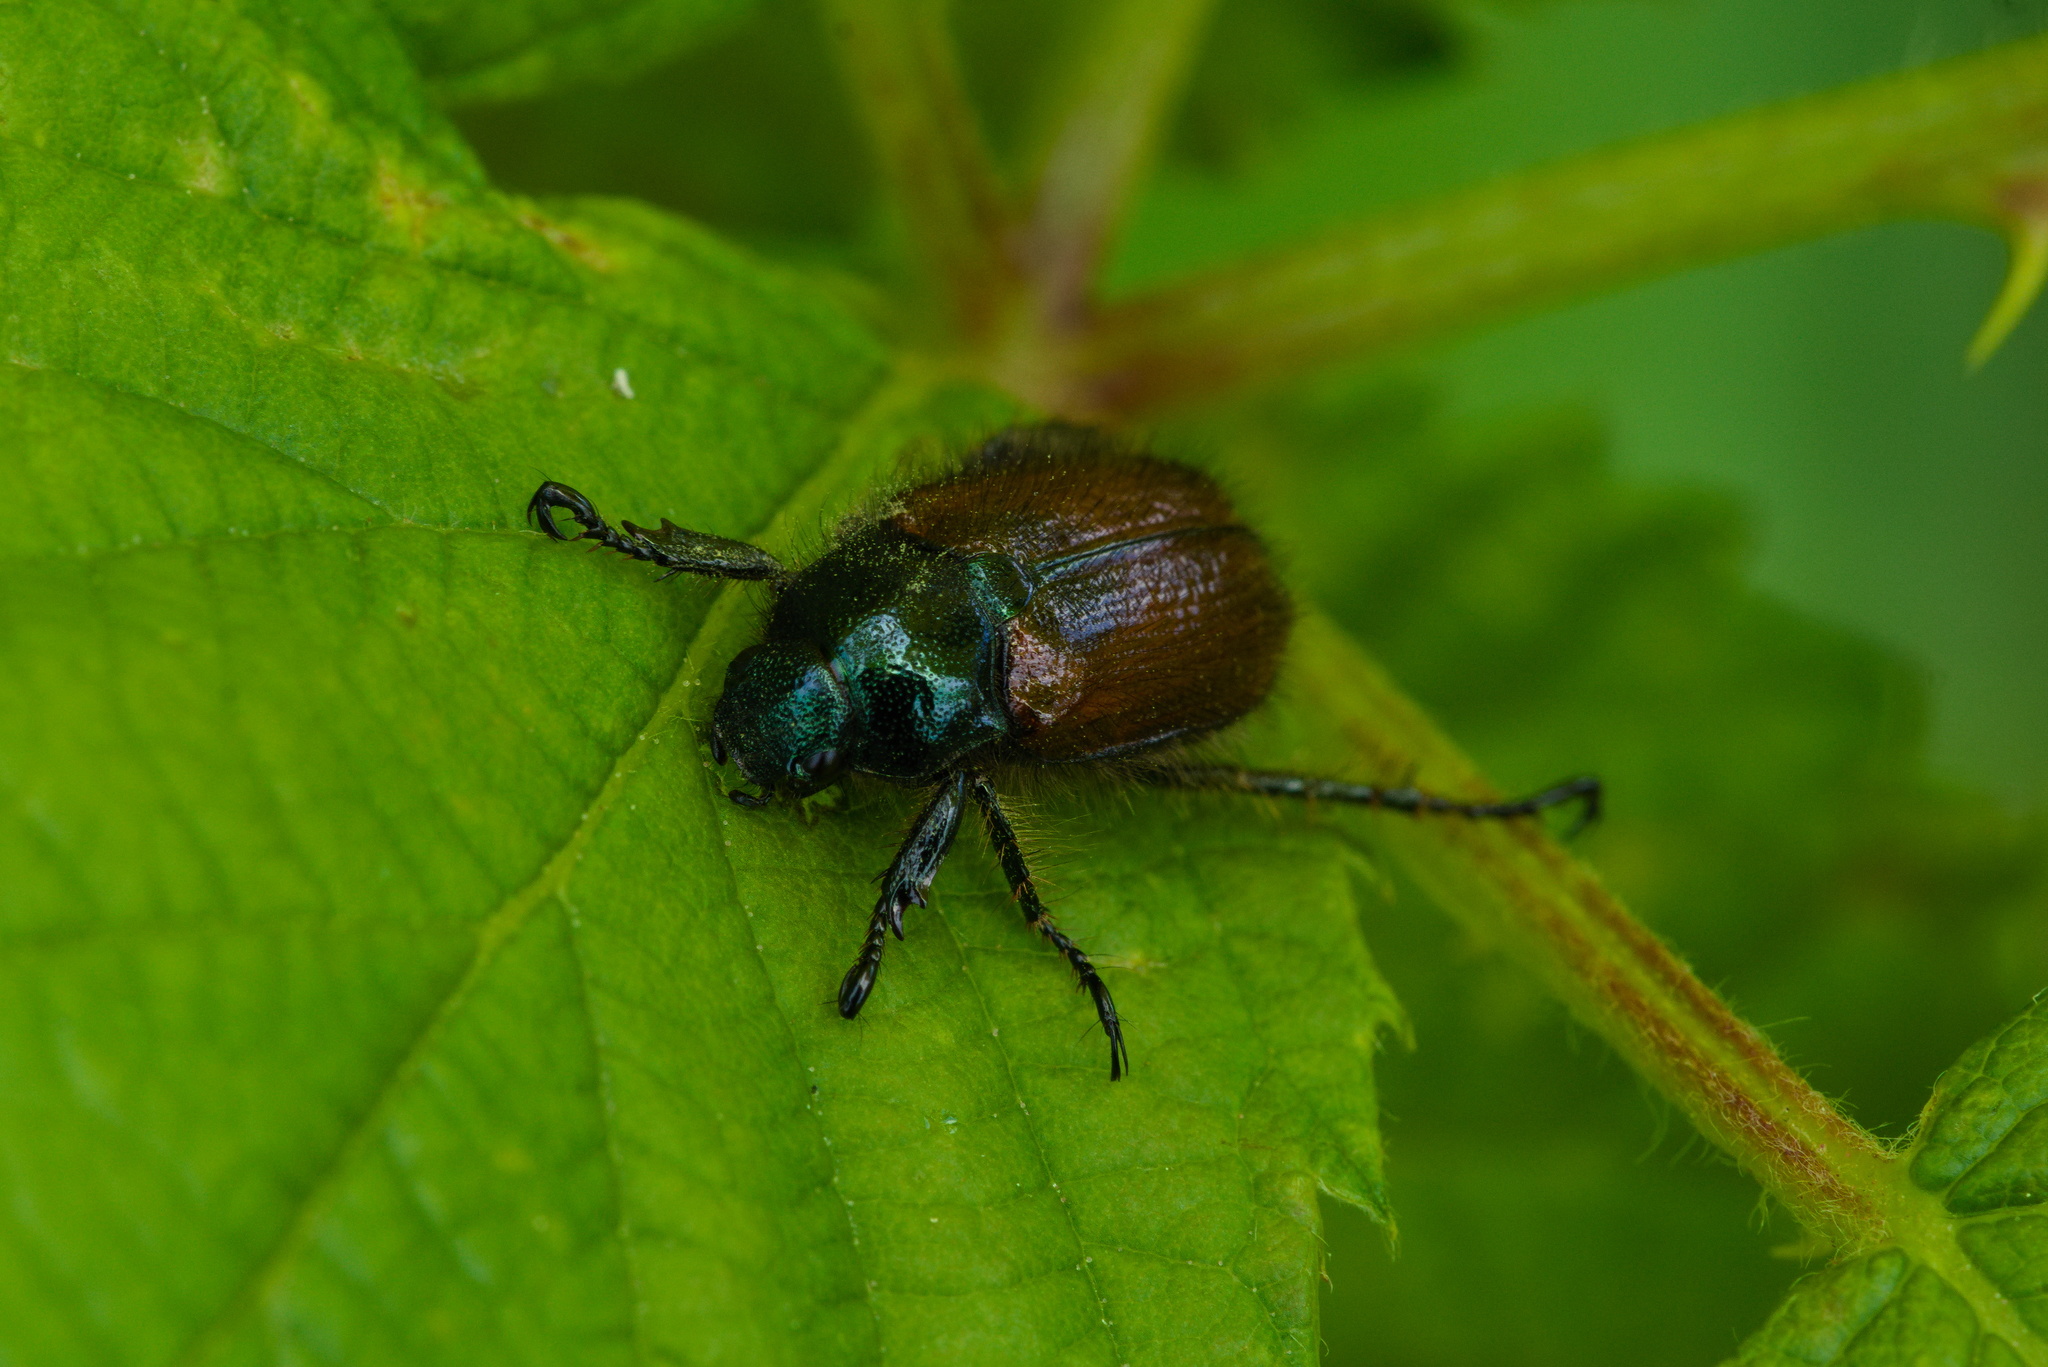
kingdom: Animalia
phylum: Arthropoda
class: Insecta
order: Coleoptera
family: Scarabaeidae
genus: Phyllopertha
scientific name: Phyllopertha horticola
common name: Garden chafer
